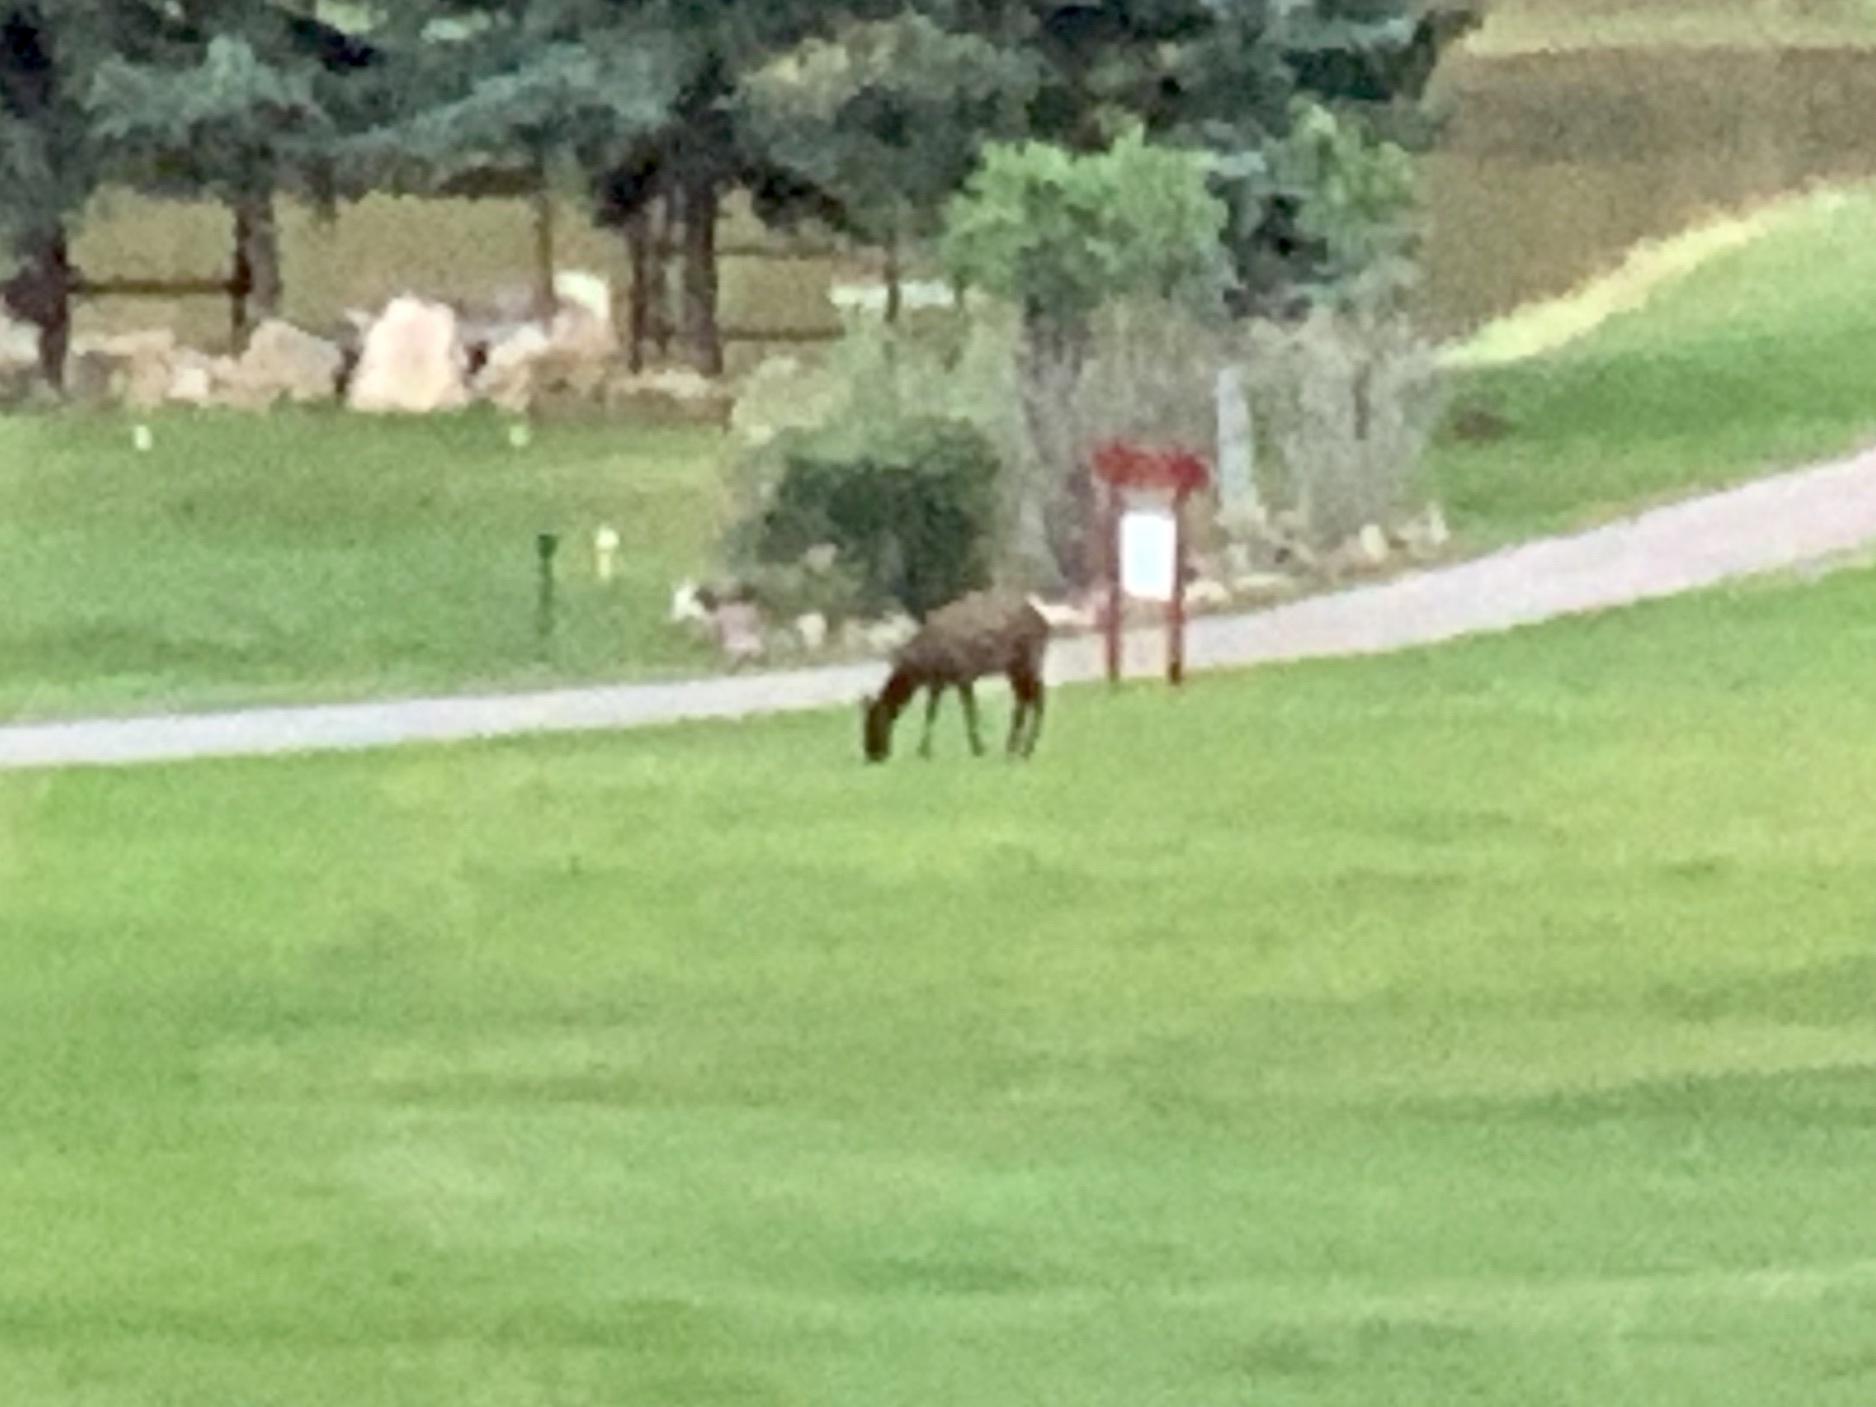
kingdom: Animalia
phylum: Chordata
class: Mammalia
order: Artiodactyla
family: Cervidae
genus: Cervus
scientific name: Cervus elaphus
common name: Red deer
